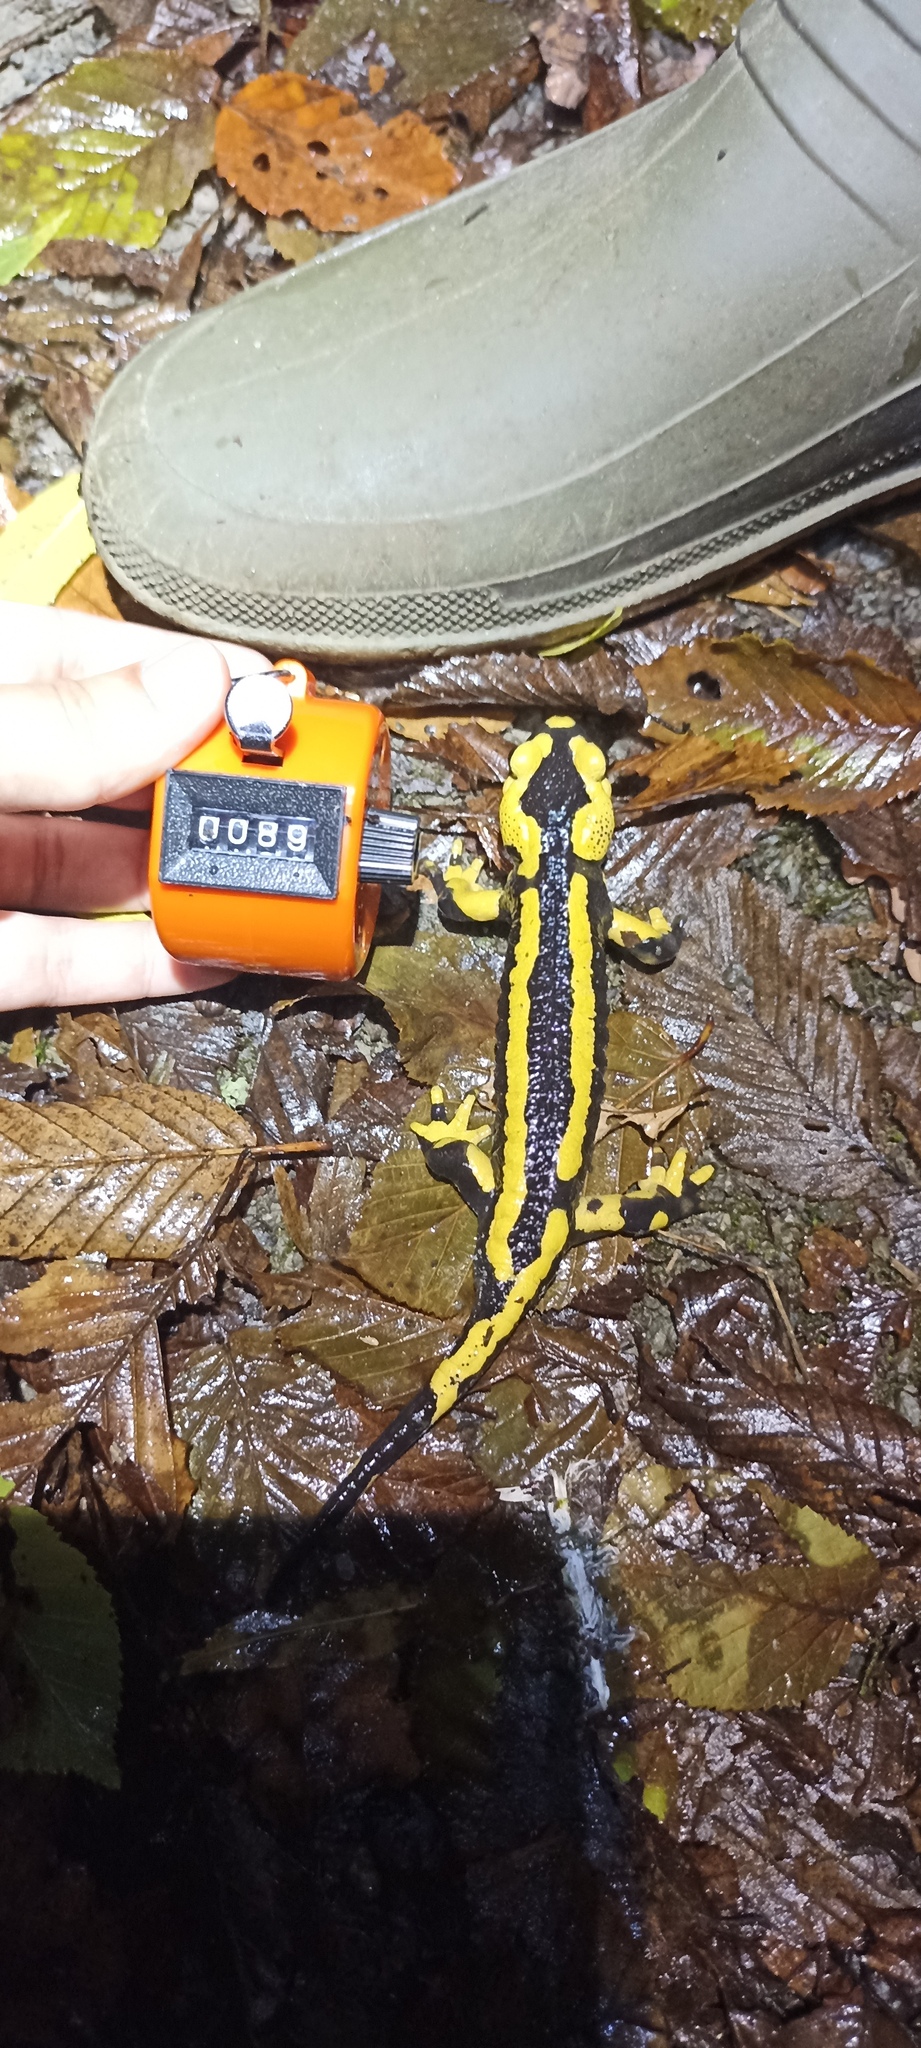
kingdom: Animalia
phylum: Chordata
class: Amphibia
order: Caudata
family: Salamandridae
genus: Salamandra
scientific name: Salamandra salamandra
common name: Fire salamander
